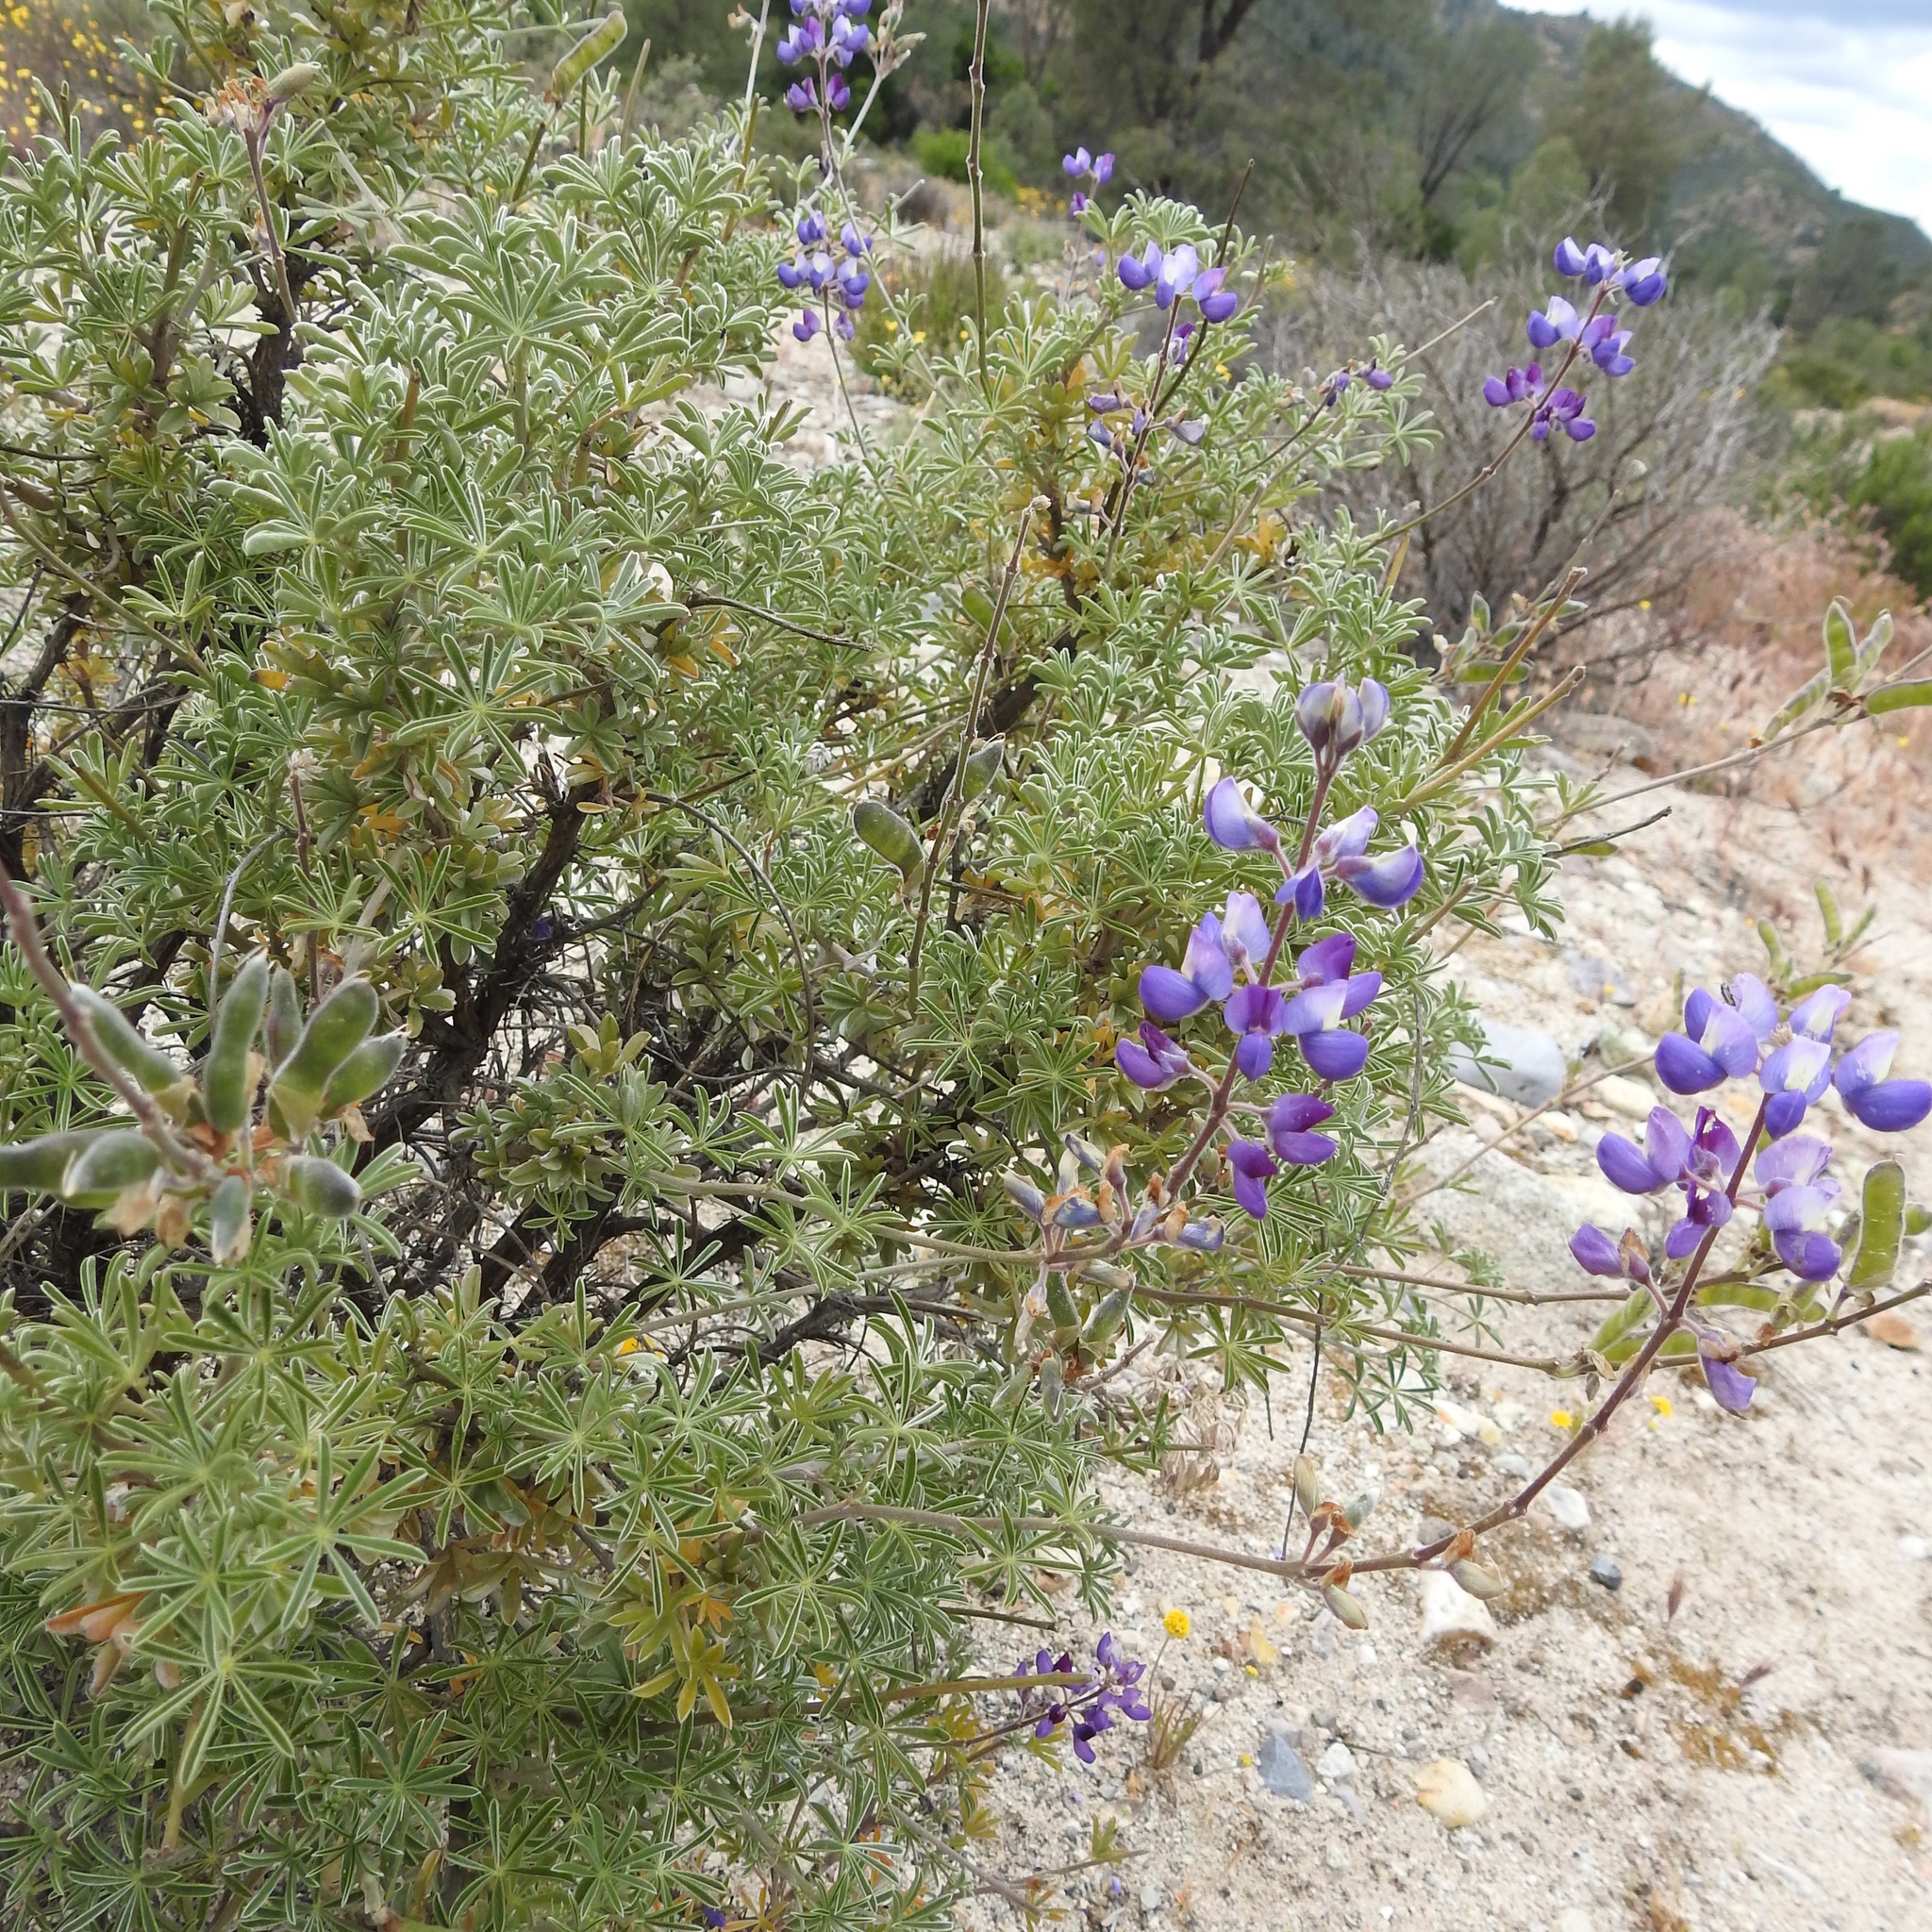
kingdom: Plantae
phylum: Tracheophyta
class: Magnoliopsida
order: Fabales
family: Fabaceae
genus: Lupinus
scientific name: Lupinus albifrons
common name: Foothill lupine
